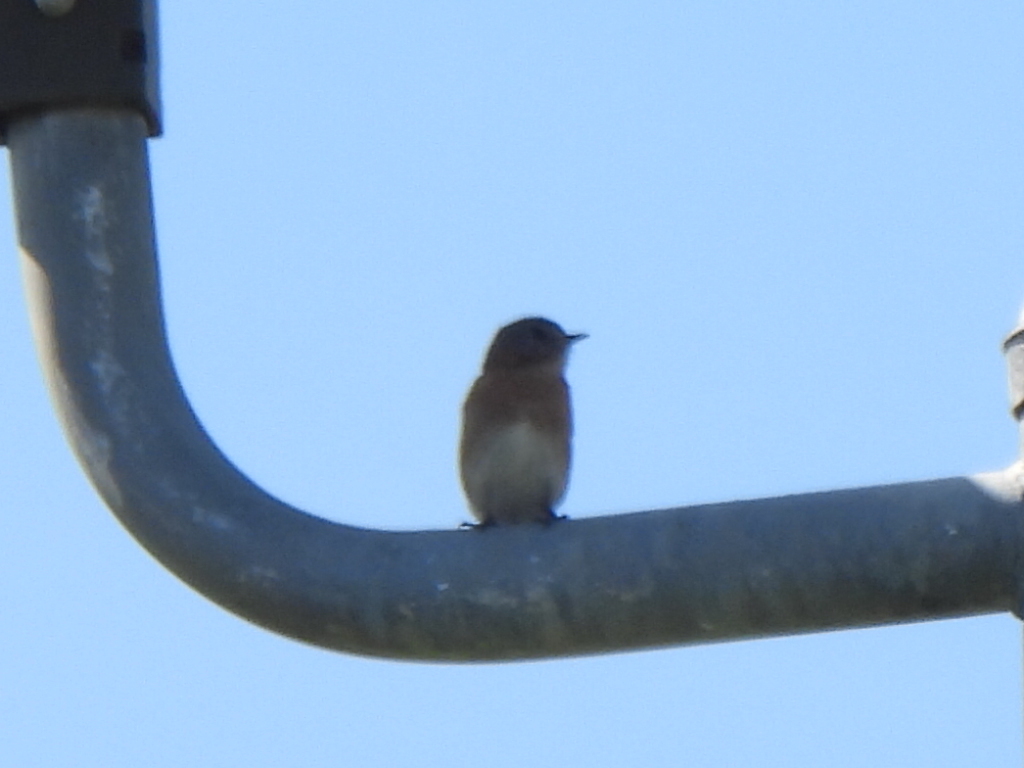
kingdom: Animalia
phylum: Chordata
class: Aves
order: Passeriformes
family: Turdidae
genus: Sialia
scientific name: Sialia sialis
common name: Eastern bluebird
